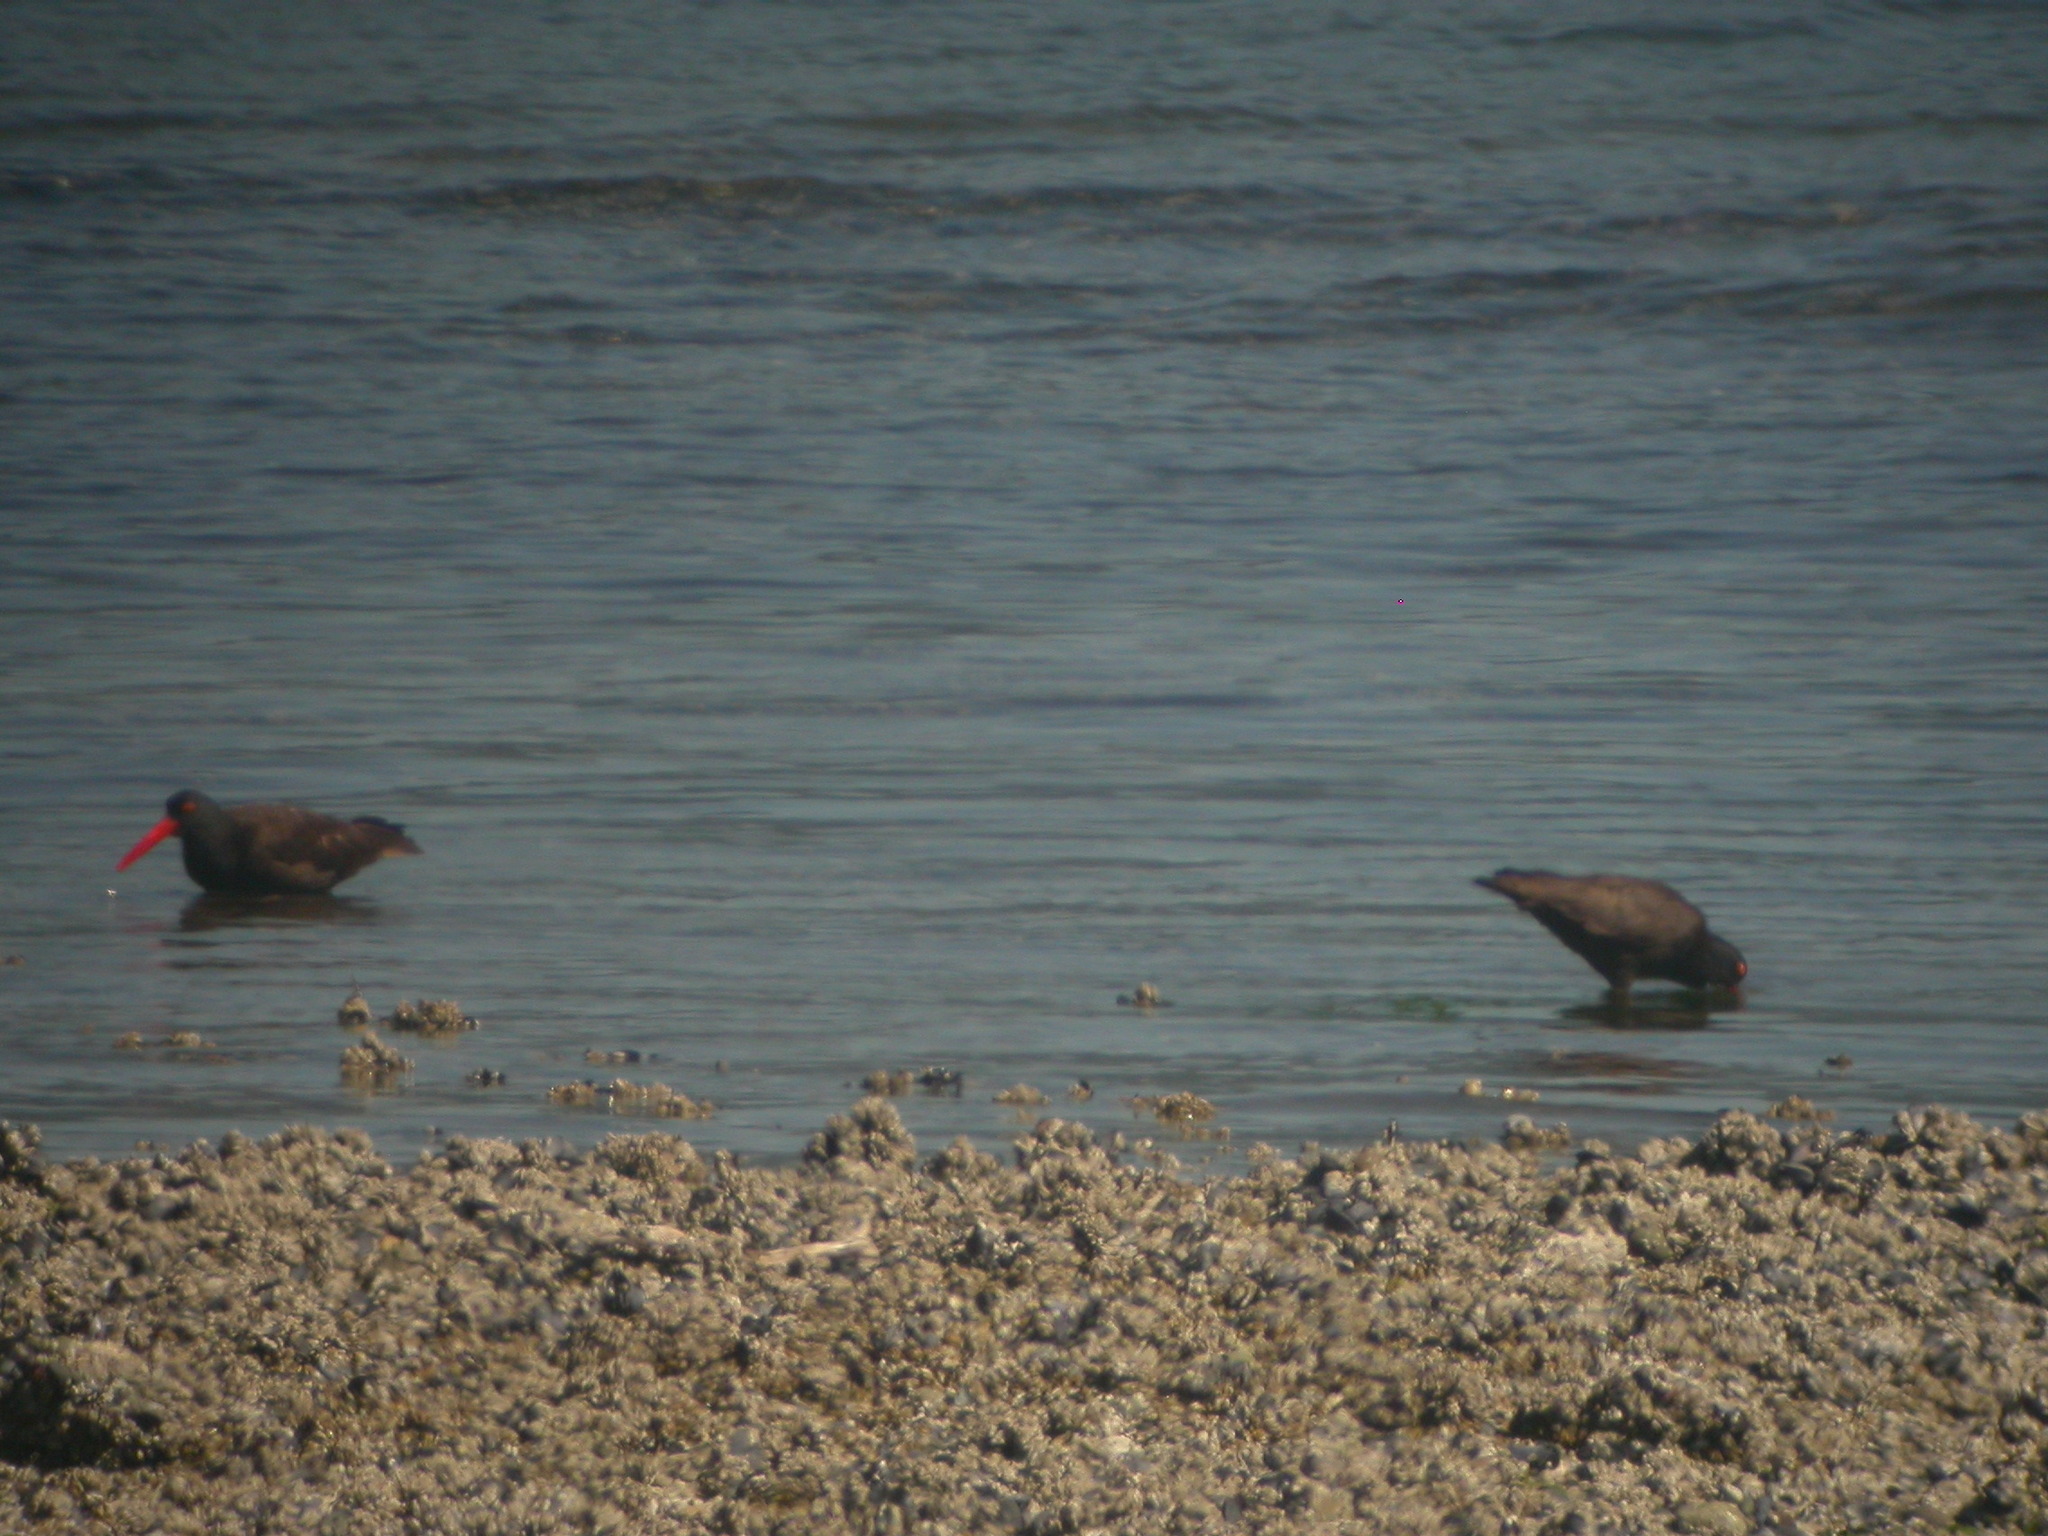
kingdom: Animalia
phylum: Chordata
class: Aves
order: Charadriiformes
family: Haematopodidae
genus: Haematopus
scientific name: Haematopus bachmani
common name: Black oystercatcher
